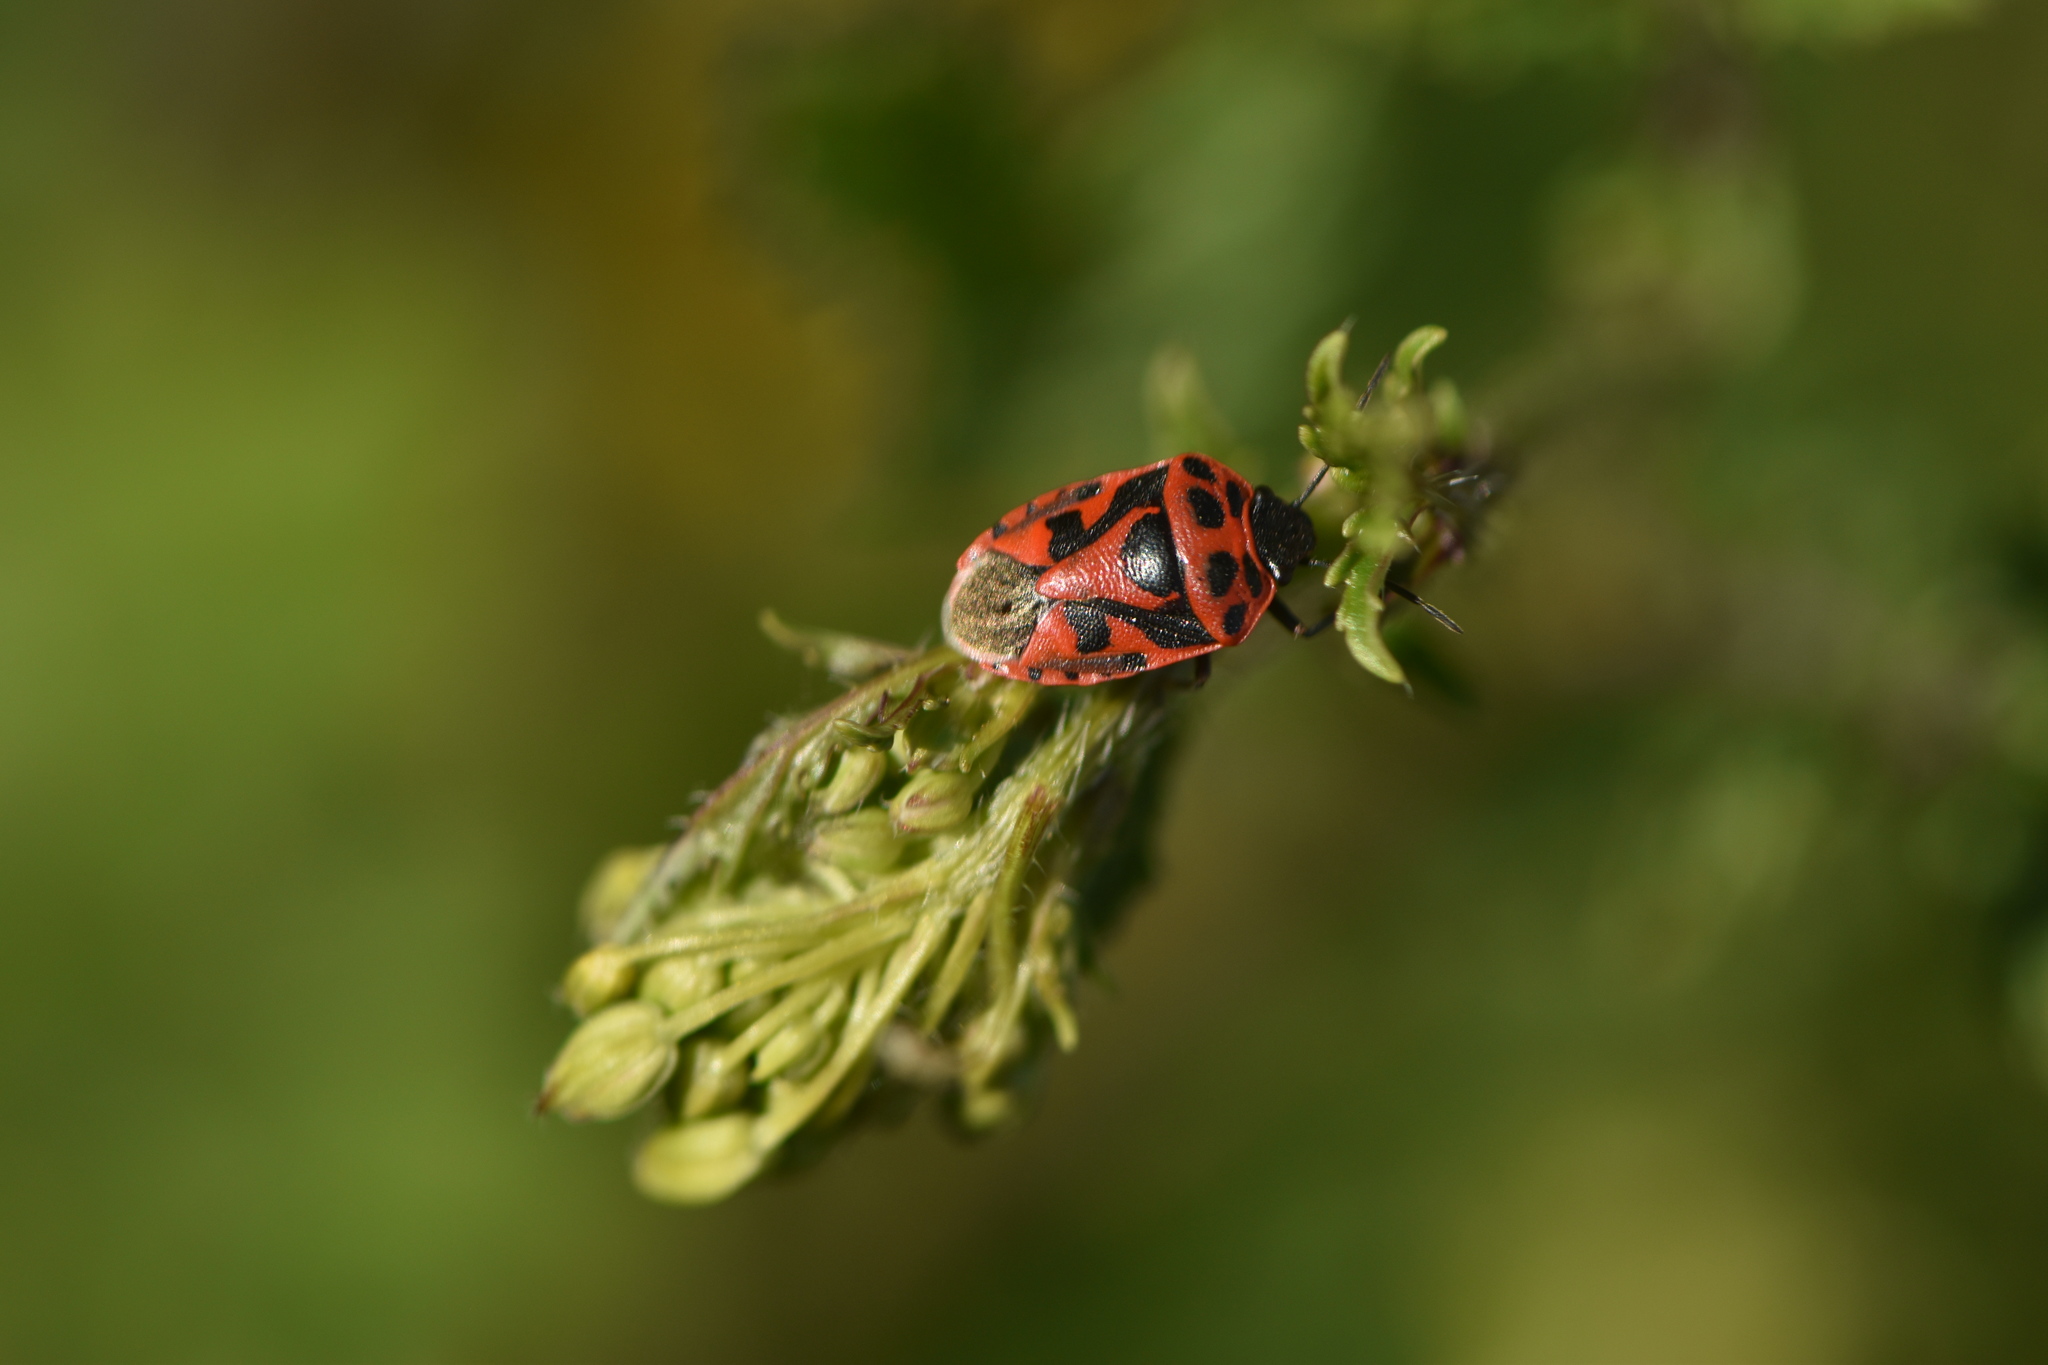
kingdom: Animalia
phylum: Arthropoda
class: Insecta
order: Hemiptera
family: Pentatomidae
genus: Eurydema
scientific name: Eurydema ornata
